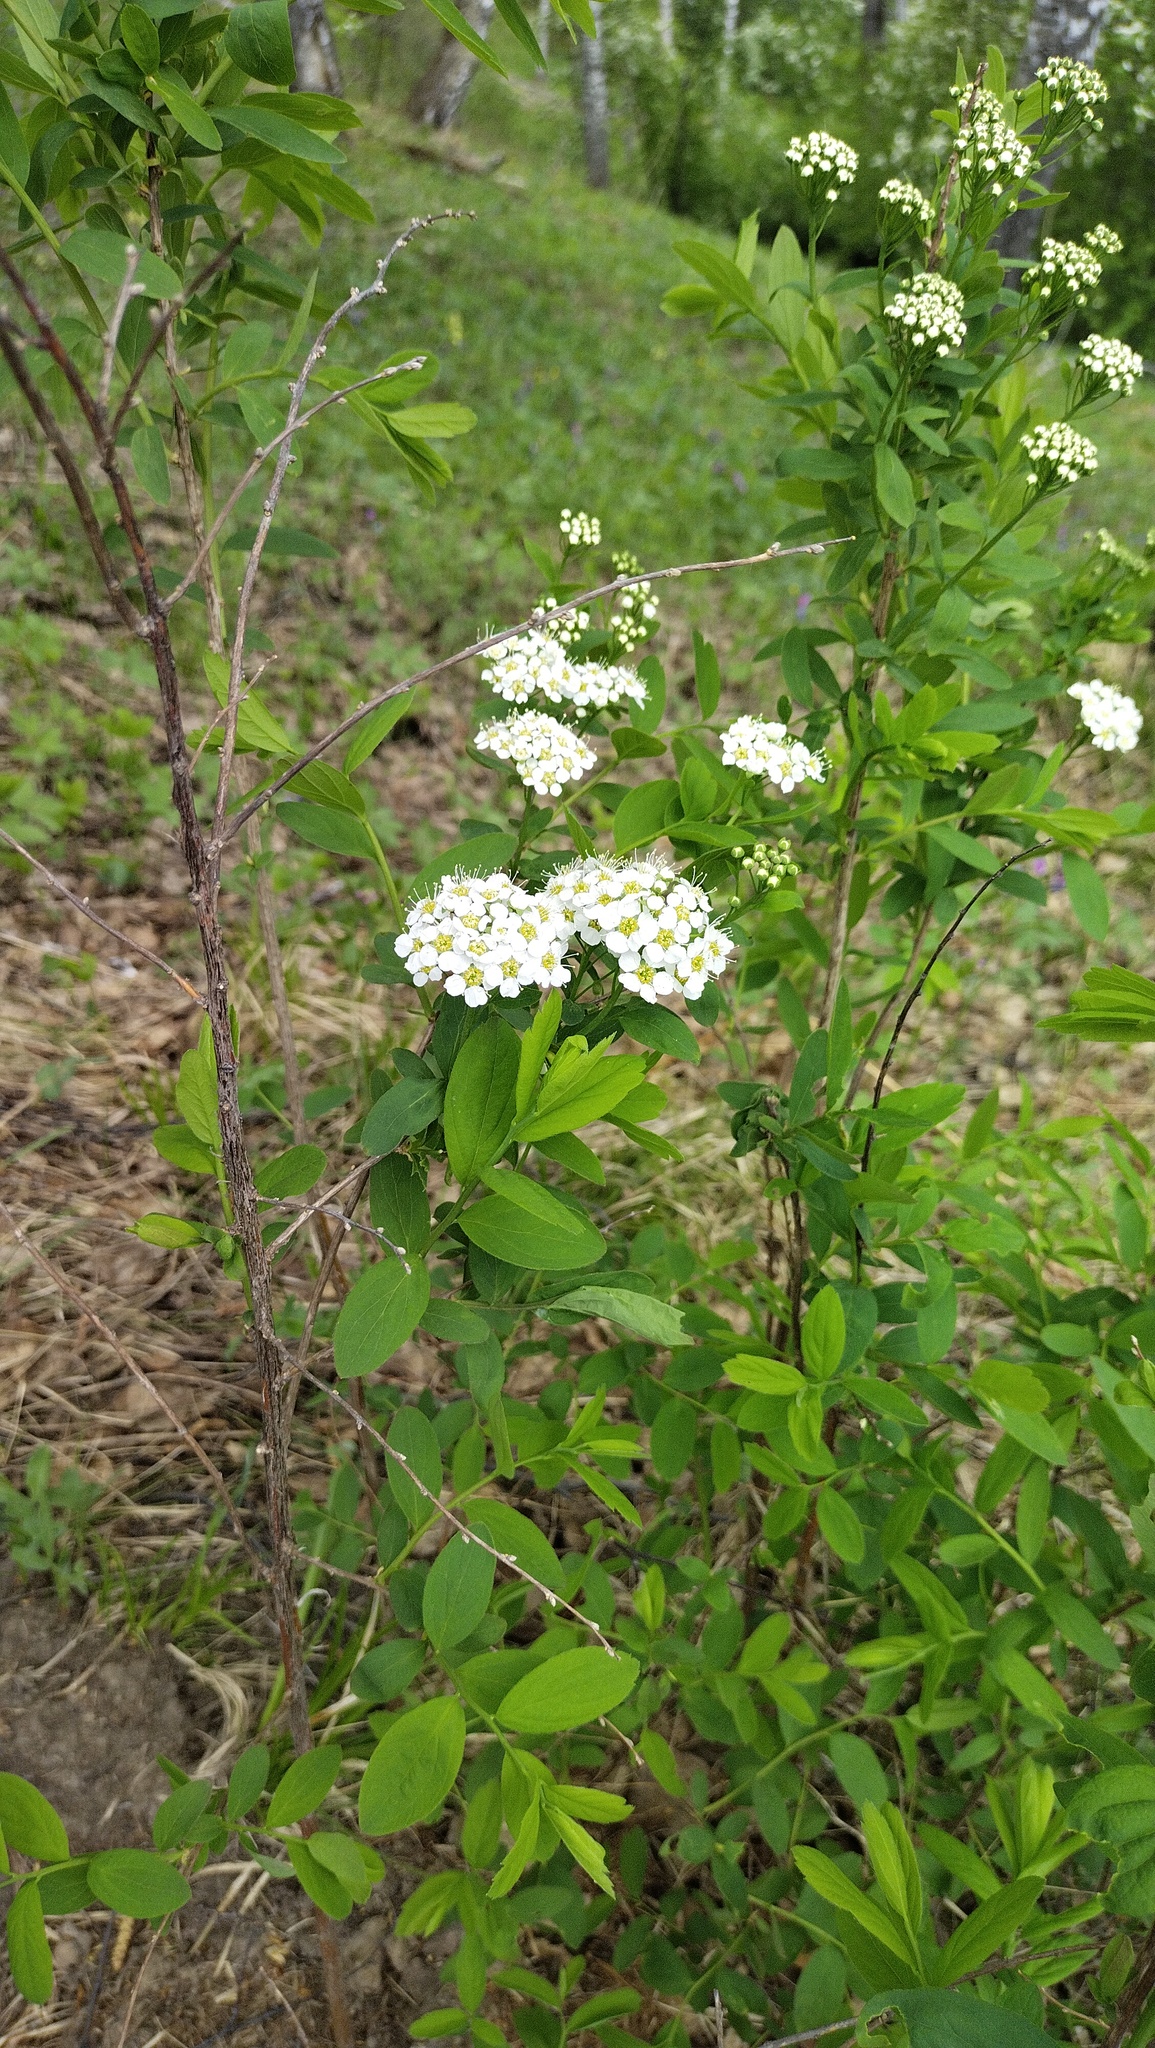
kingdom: Plantae
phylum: Tracheophyta
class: Magnoliopsida
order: Rosales
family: Rosaceae
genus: Spiraea
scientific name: Spiraea media
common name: Russian spiraea
